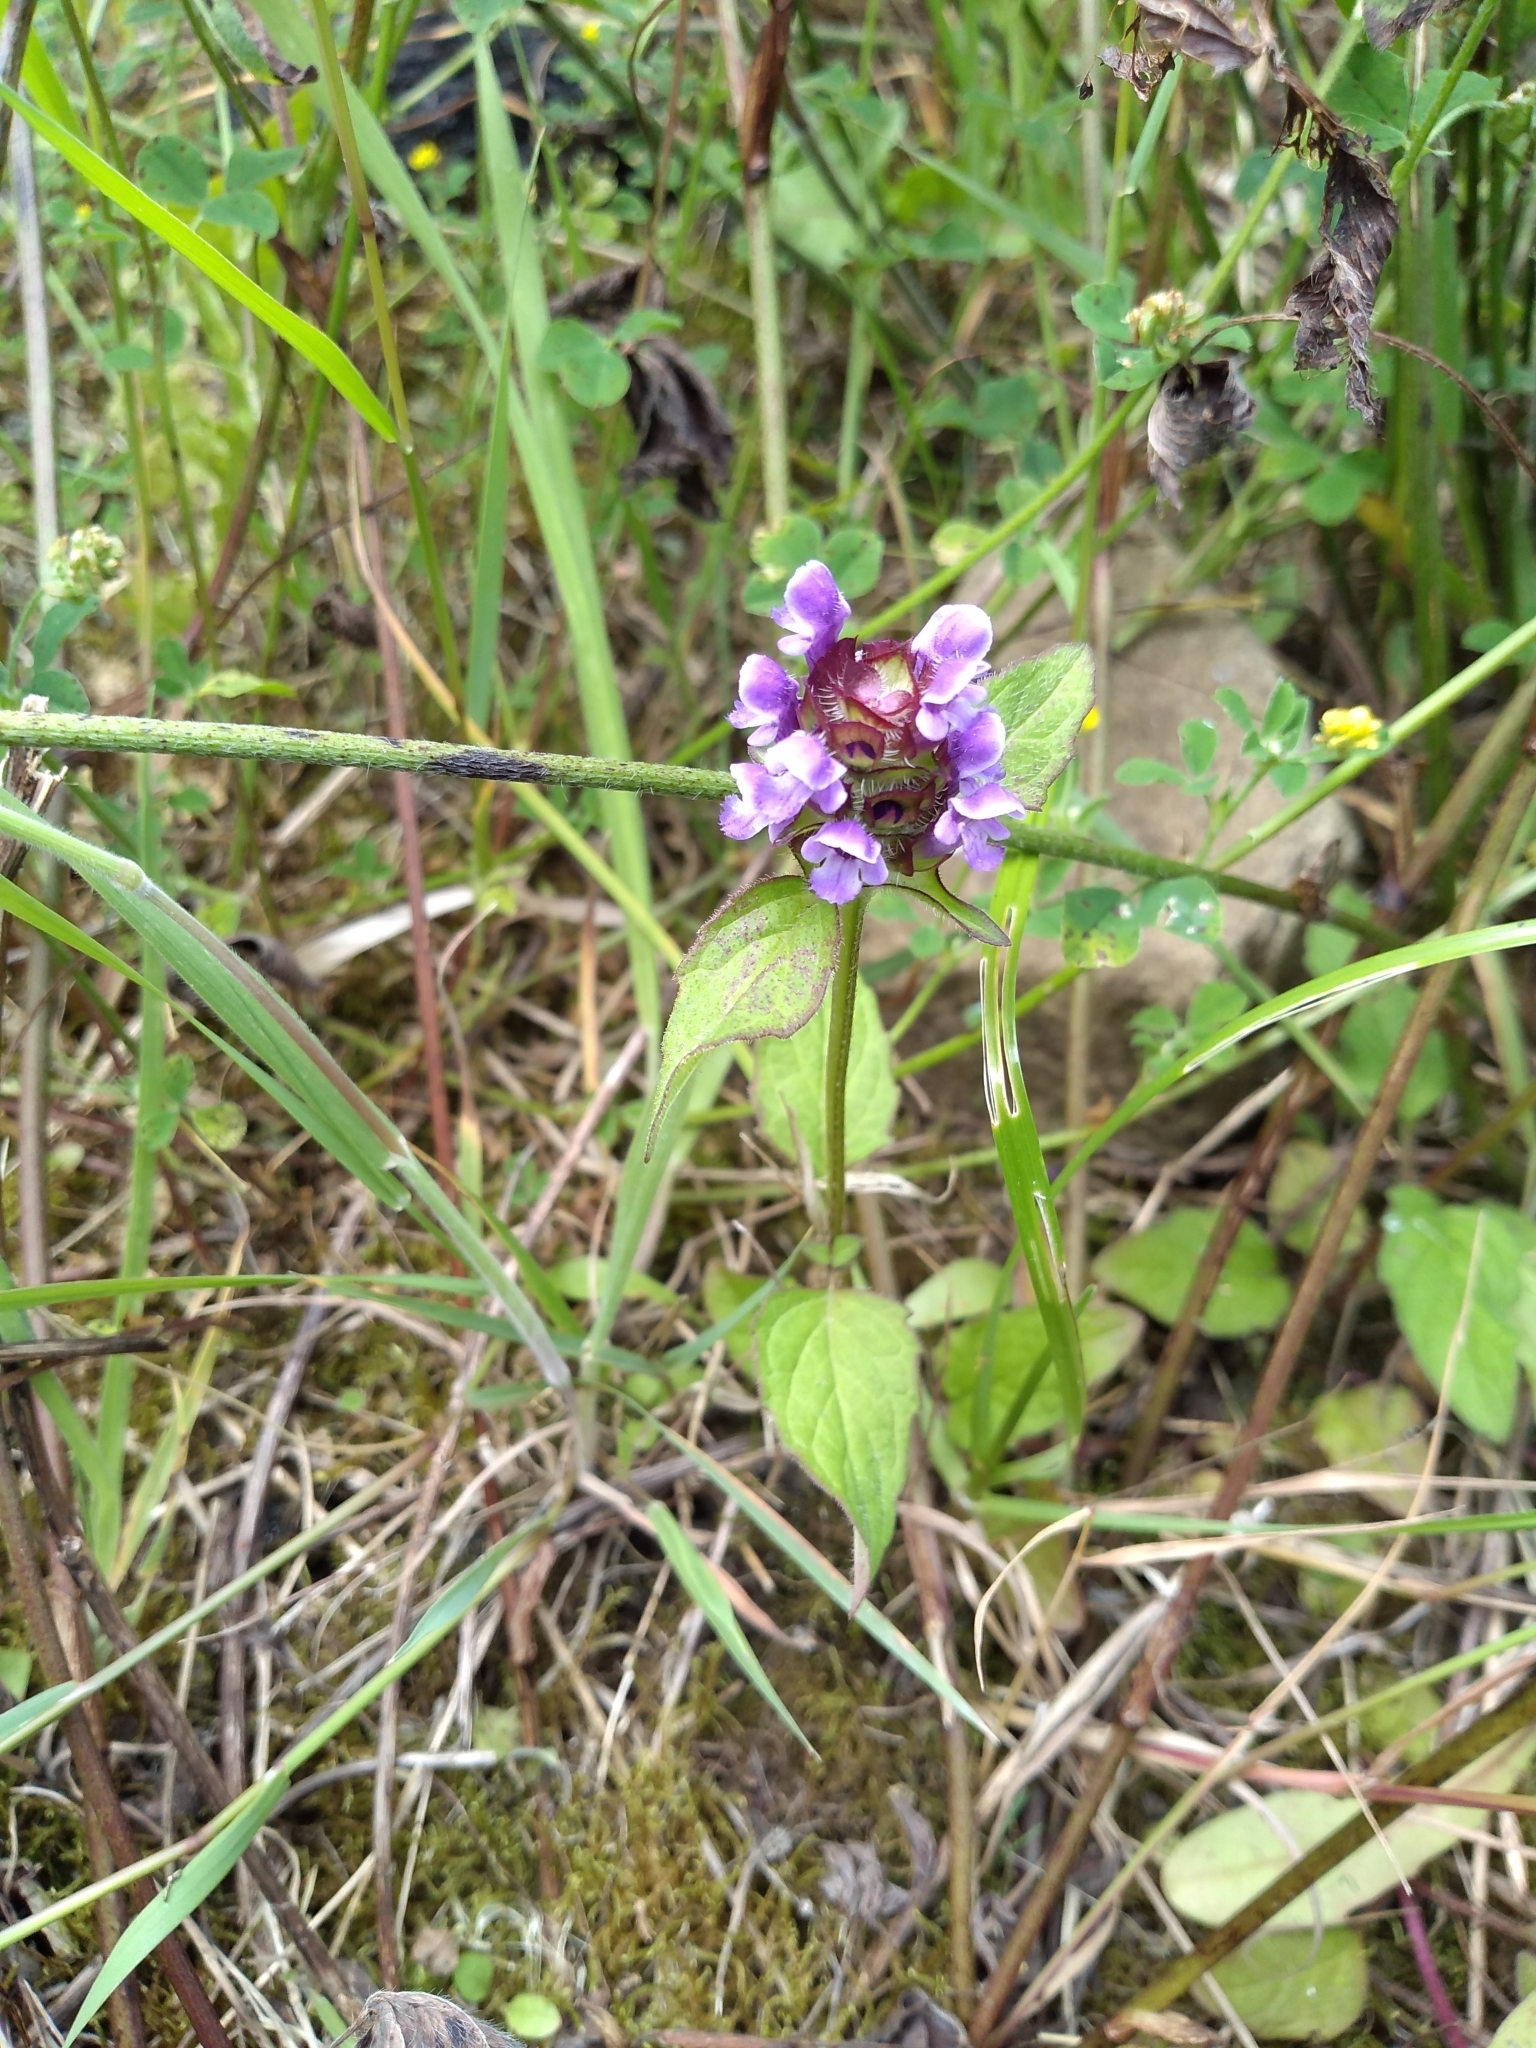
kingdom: Plantae
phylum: Tracheophyta
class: Magnoliopsida
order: Lamiales
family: Lamiaceae
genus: Prunella
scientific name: Prunella vulgaris
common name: Heal-all
